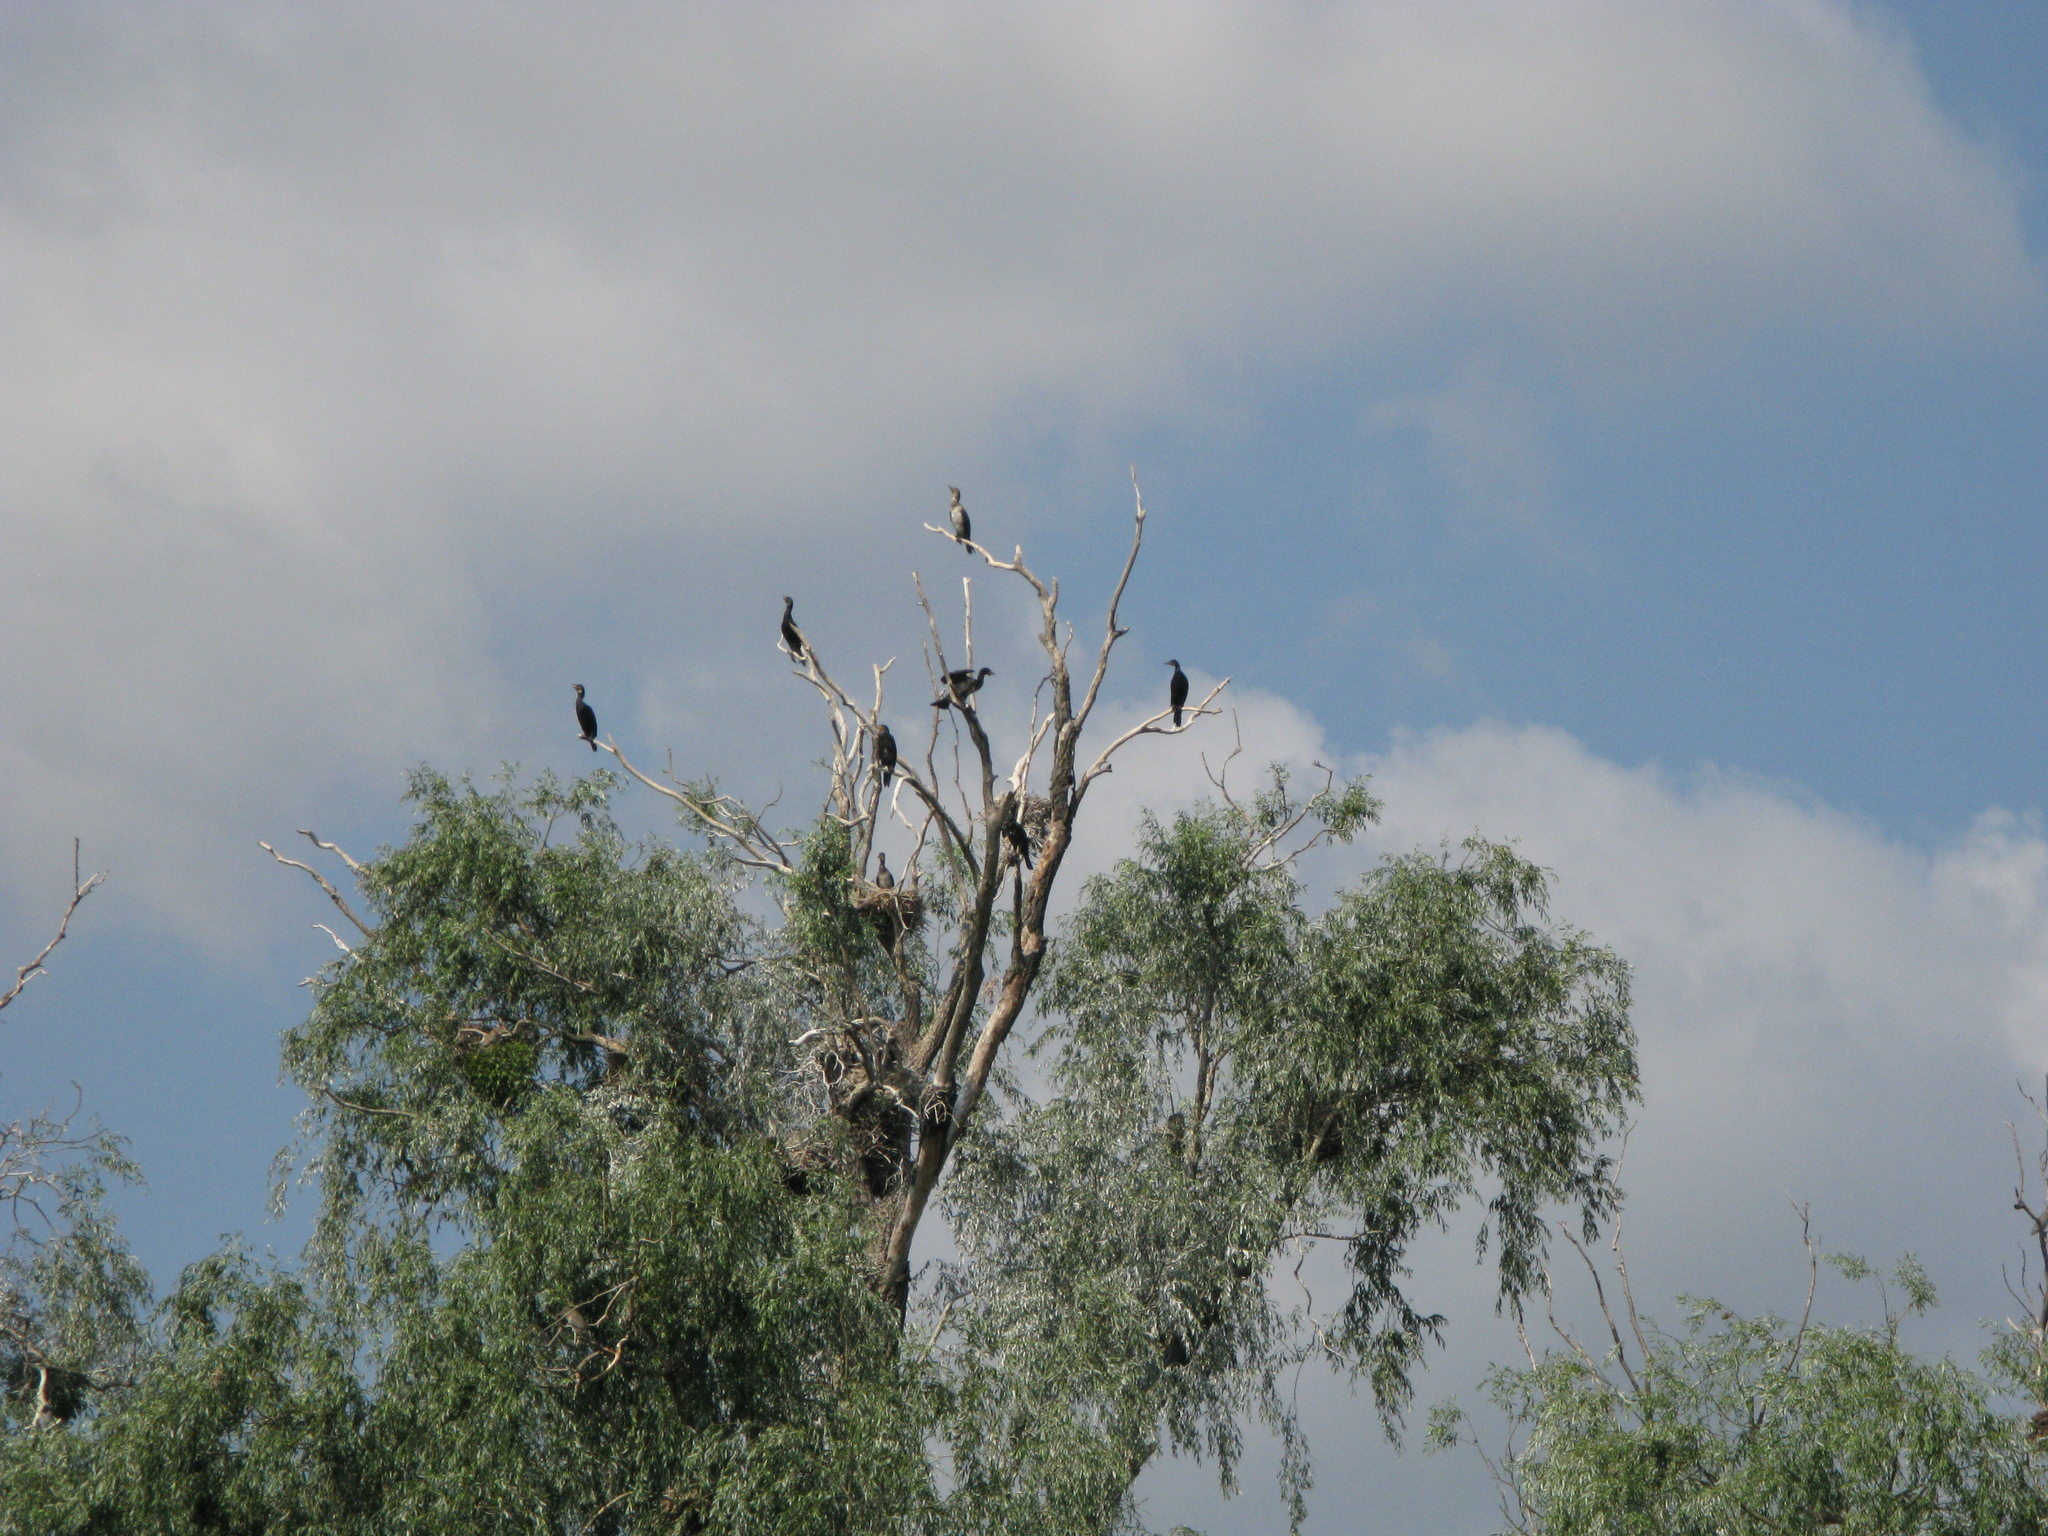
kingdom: Animalia
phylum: Chordata
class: Aves
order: Suliformes
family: Phalacrocoracidae
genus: Phalacrocorax
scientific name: Phalacrocorax carbo
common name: Great cormorant
